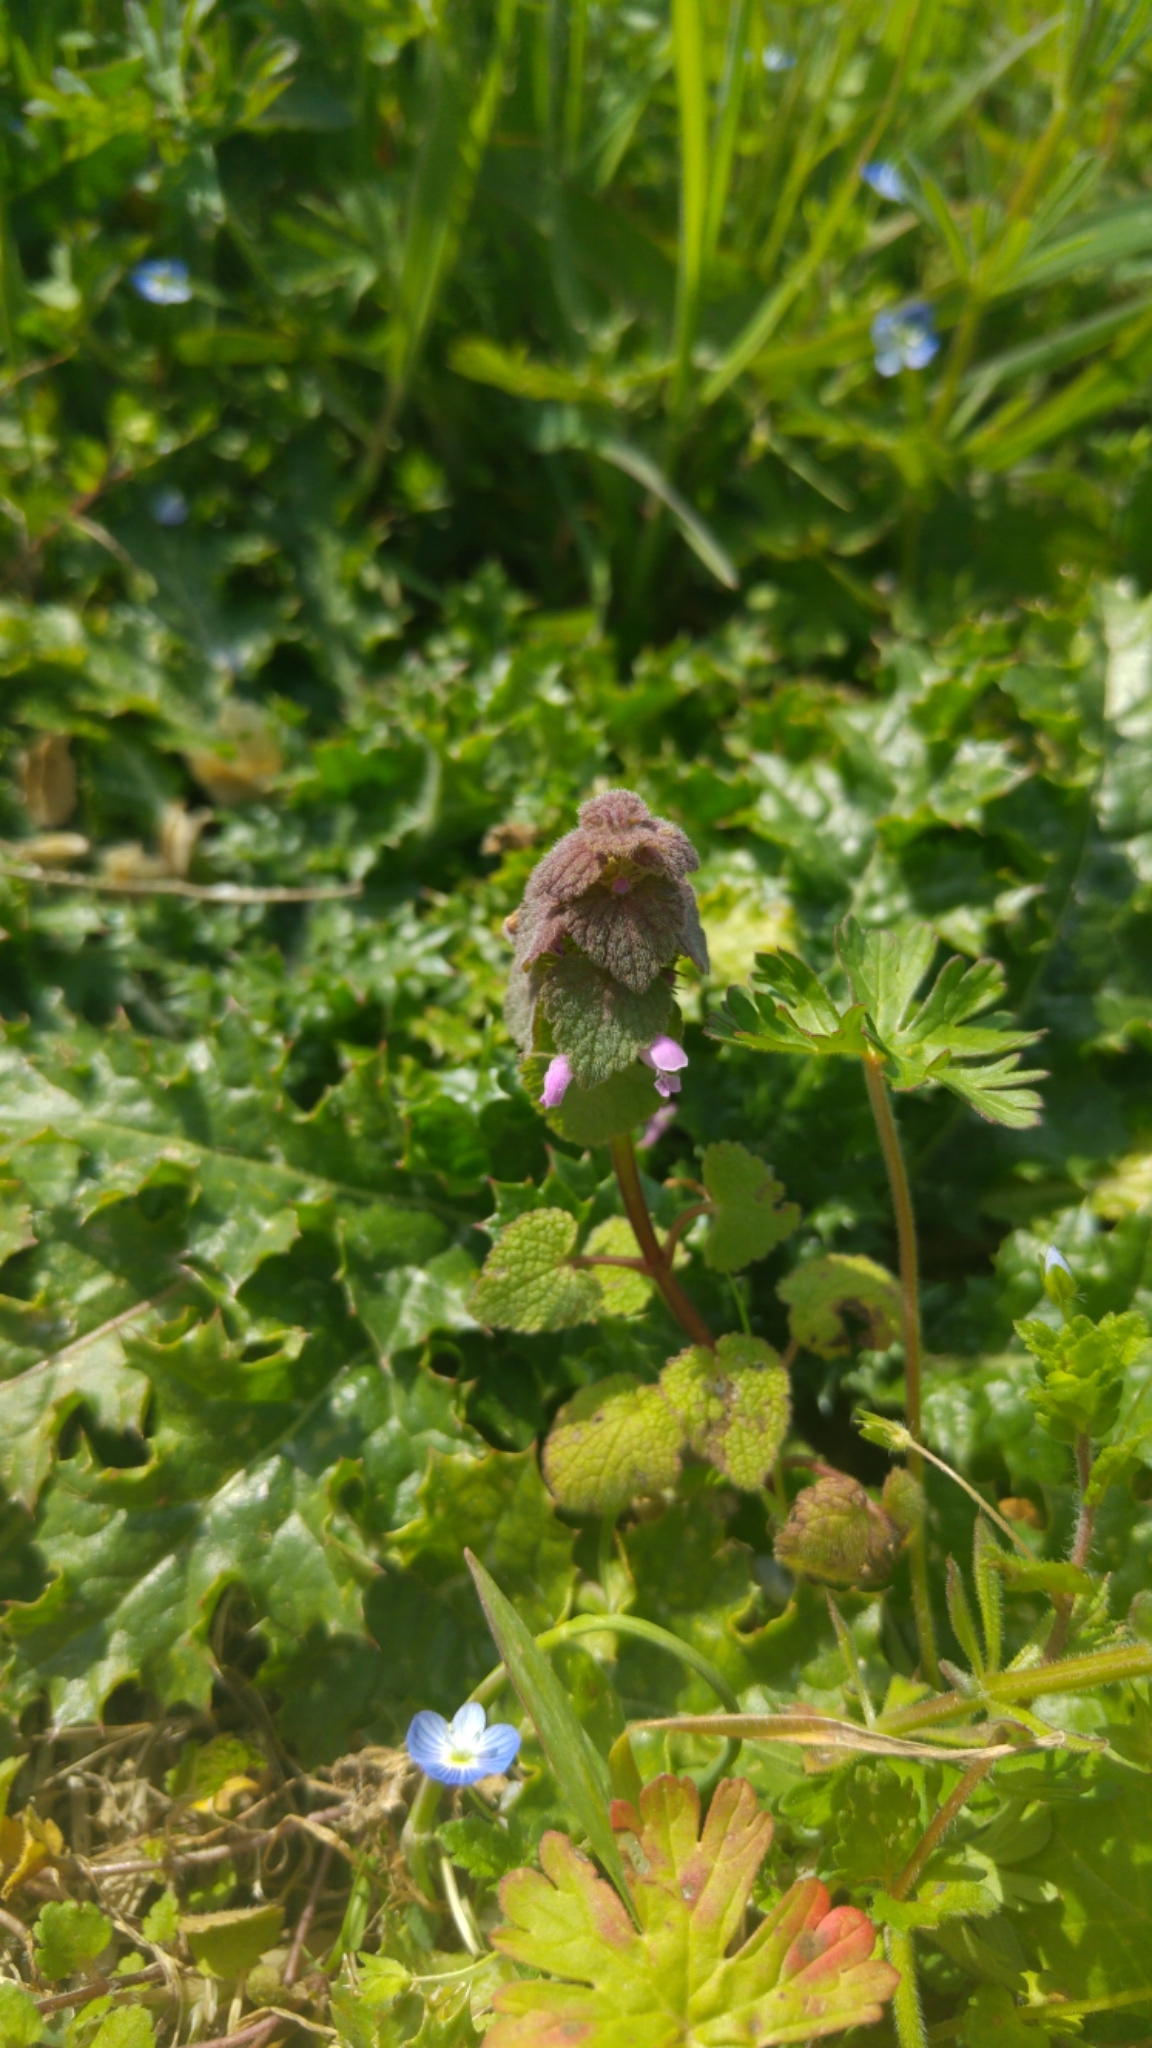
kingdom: Plantae
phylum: Tracheophyta
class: Magnoliopsida
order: Lamiales
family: Lamiaceae
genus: Lamium
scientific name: Lamium purpureum
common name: Red dead-nettle
